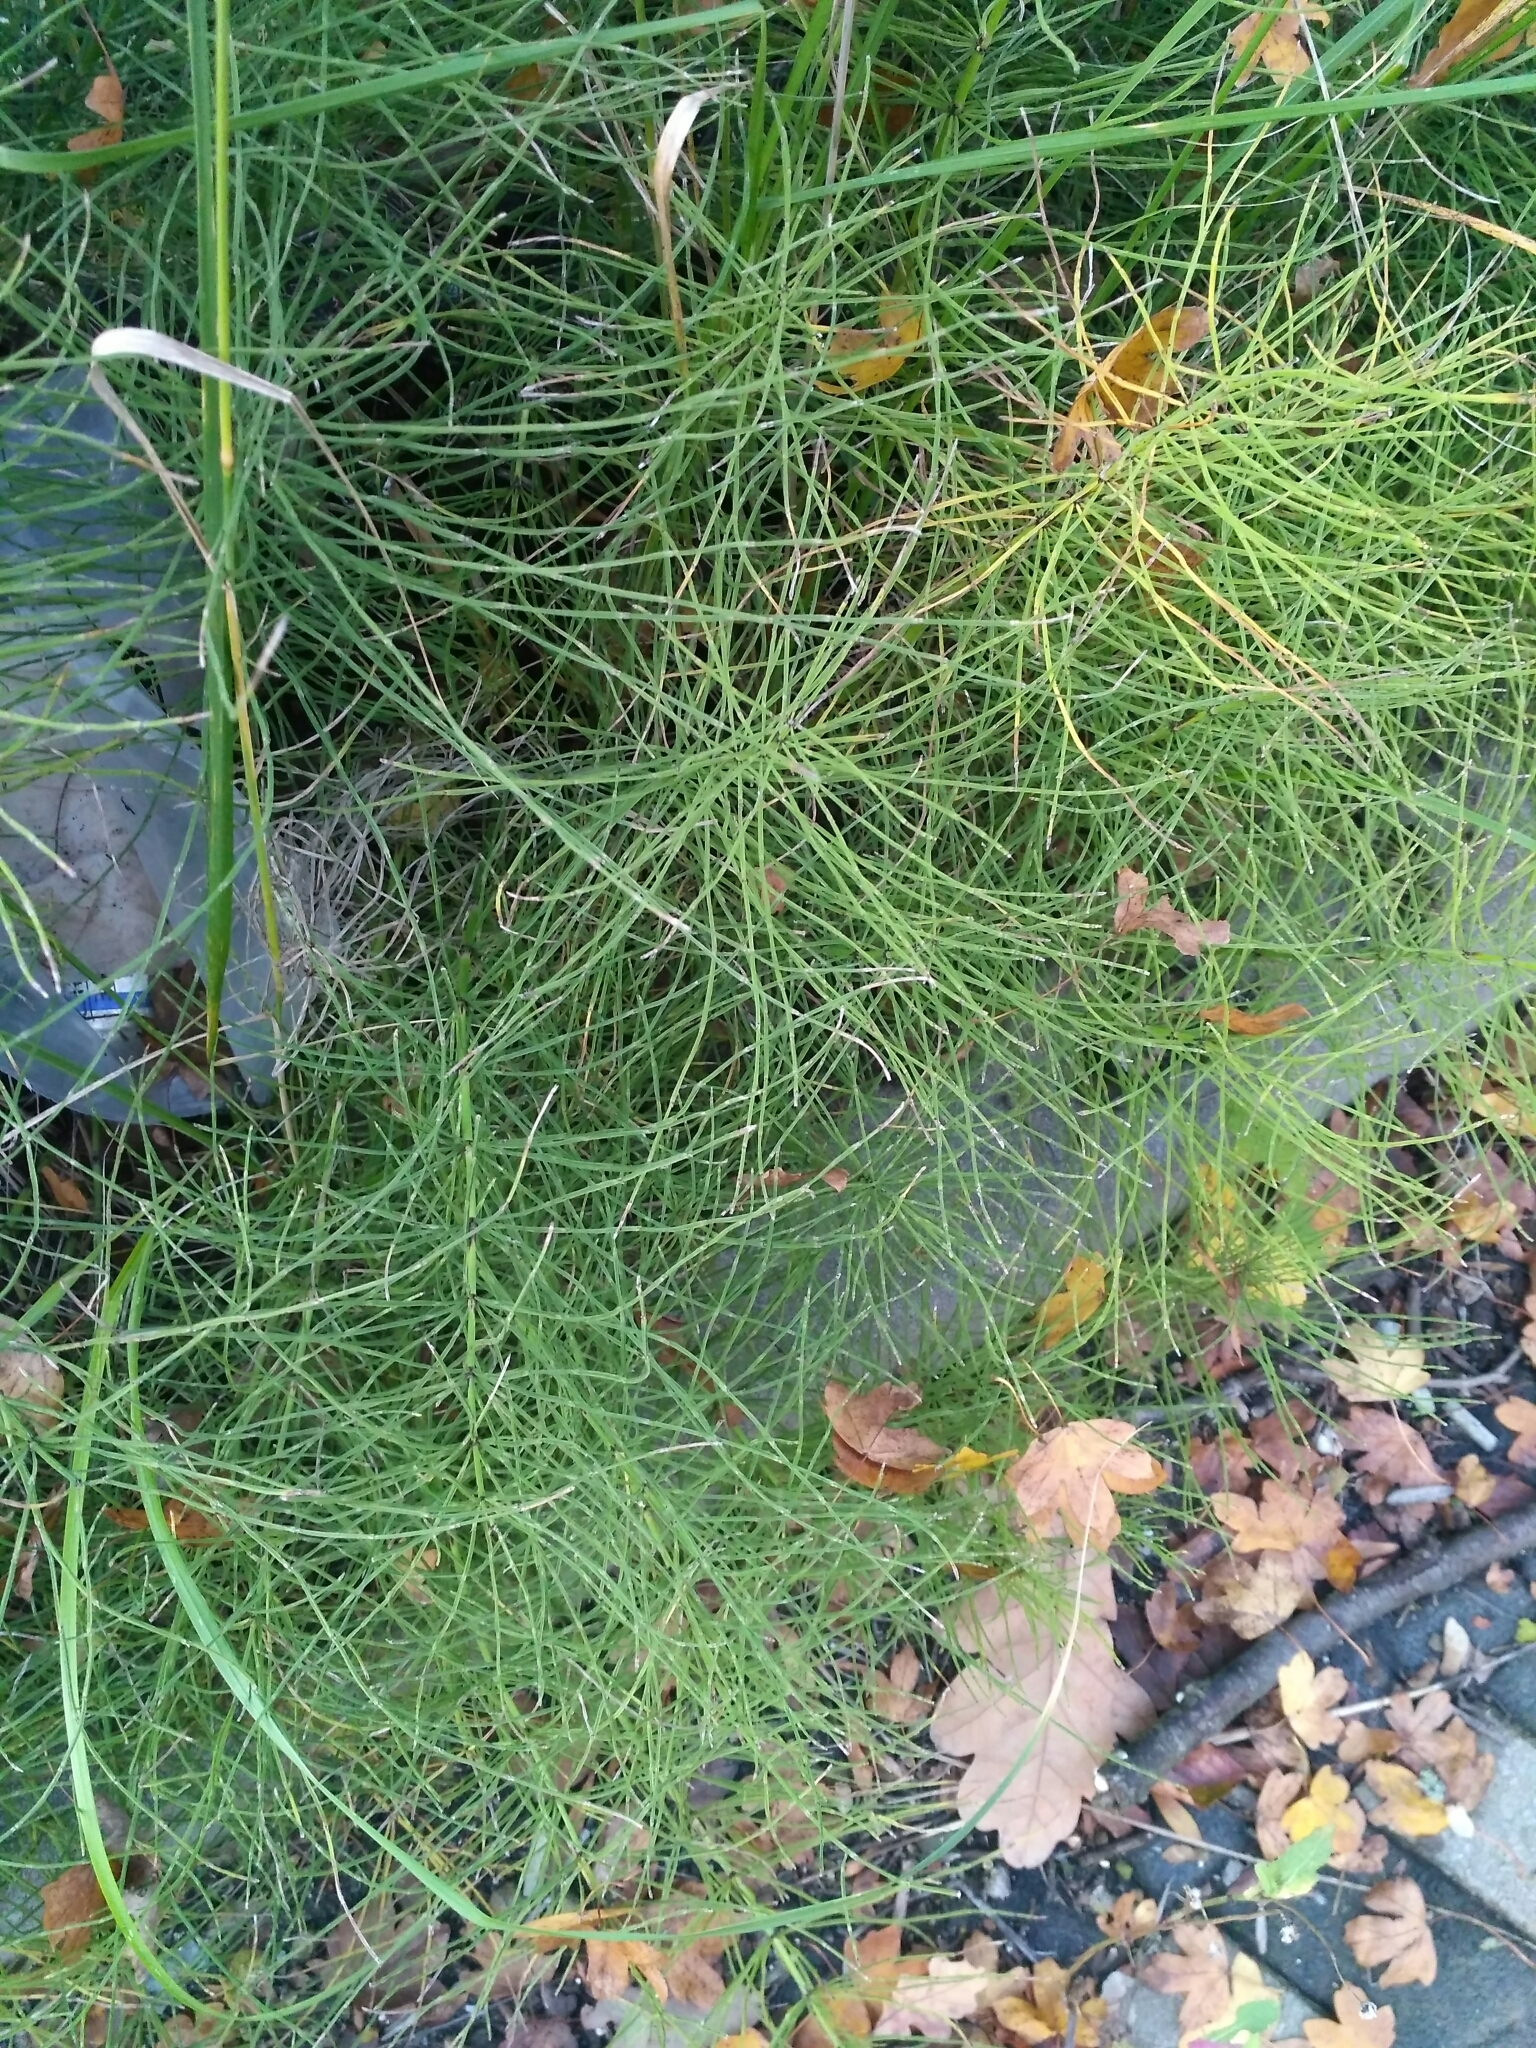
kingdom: Plantae
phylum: Tracheophyta
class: Polypodiopsida
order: Equisetales
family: Equisetaceae
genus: Equisetum
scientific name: Equisetum arvense
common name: Field horsetail
